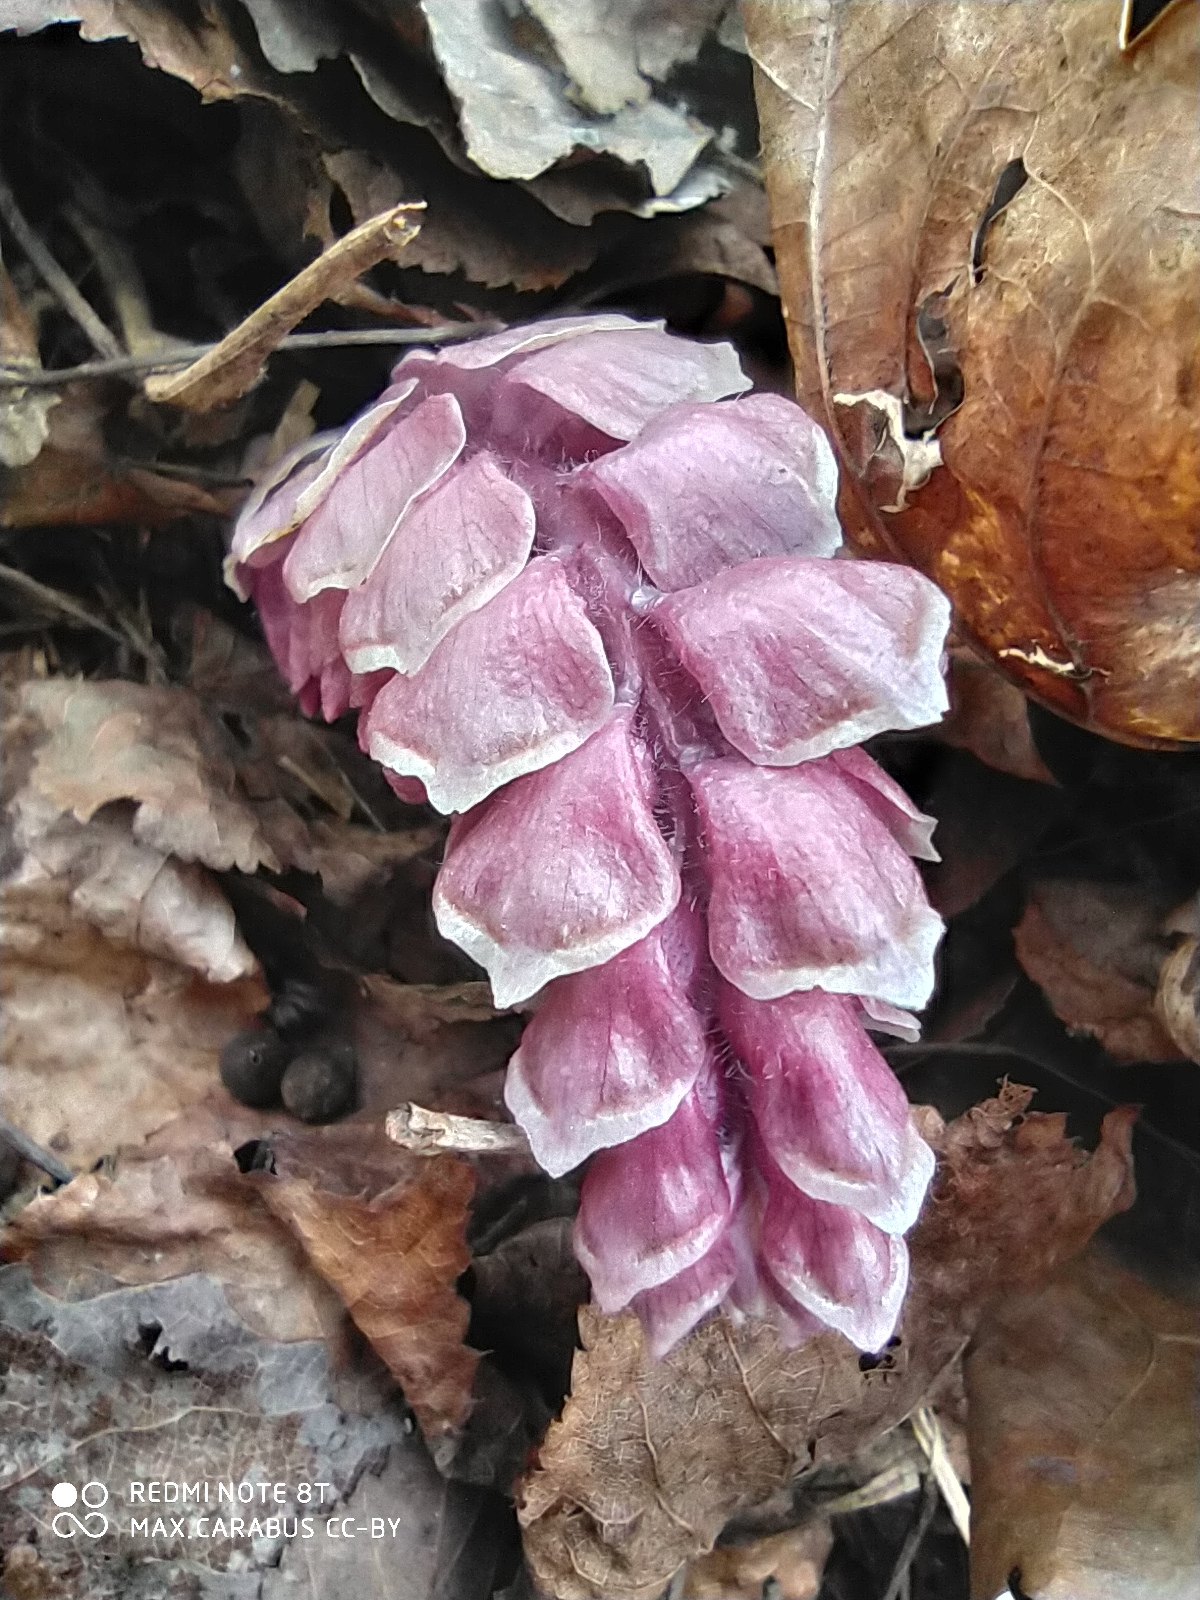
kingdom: Plantae
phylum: Tracheophyta
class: Magnoliopsida
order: Lamiales
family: Orobanchaceae
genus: Lathraea
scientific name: Lathraea squamaria
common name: Toothwort
